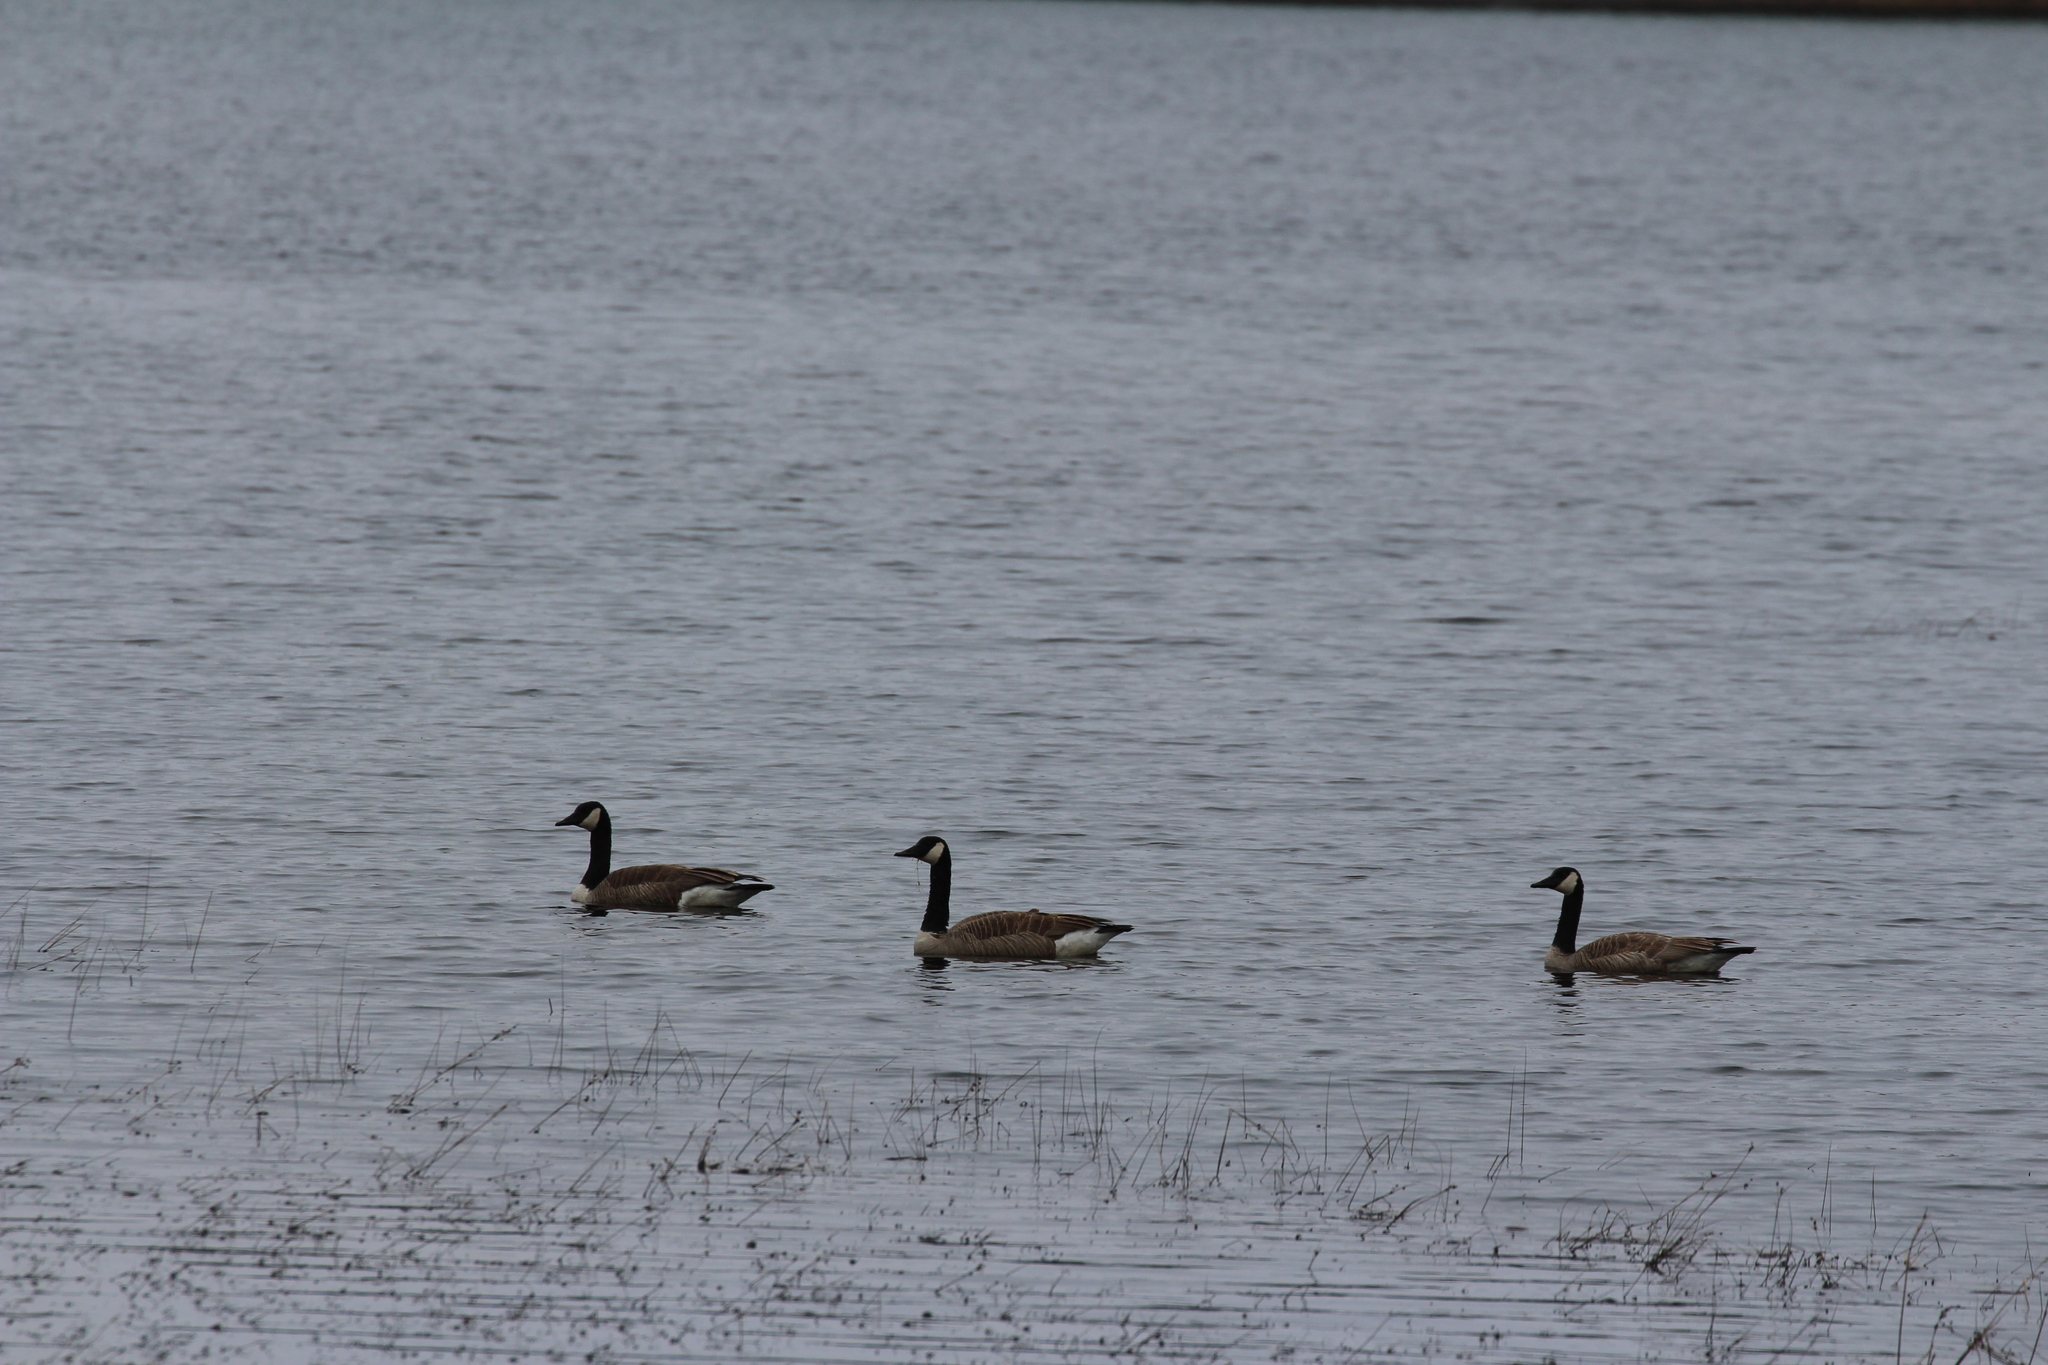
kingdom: Animalia
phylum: Chordata
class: Aves
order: Anseriformes
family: Anatidae
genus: Branta
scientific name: Branta canadensis
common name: Canada goose
